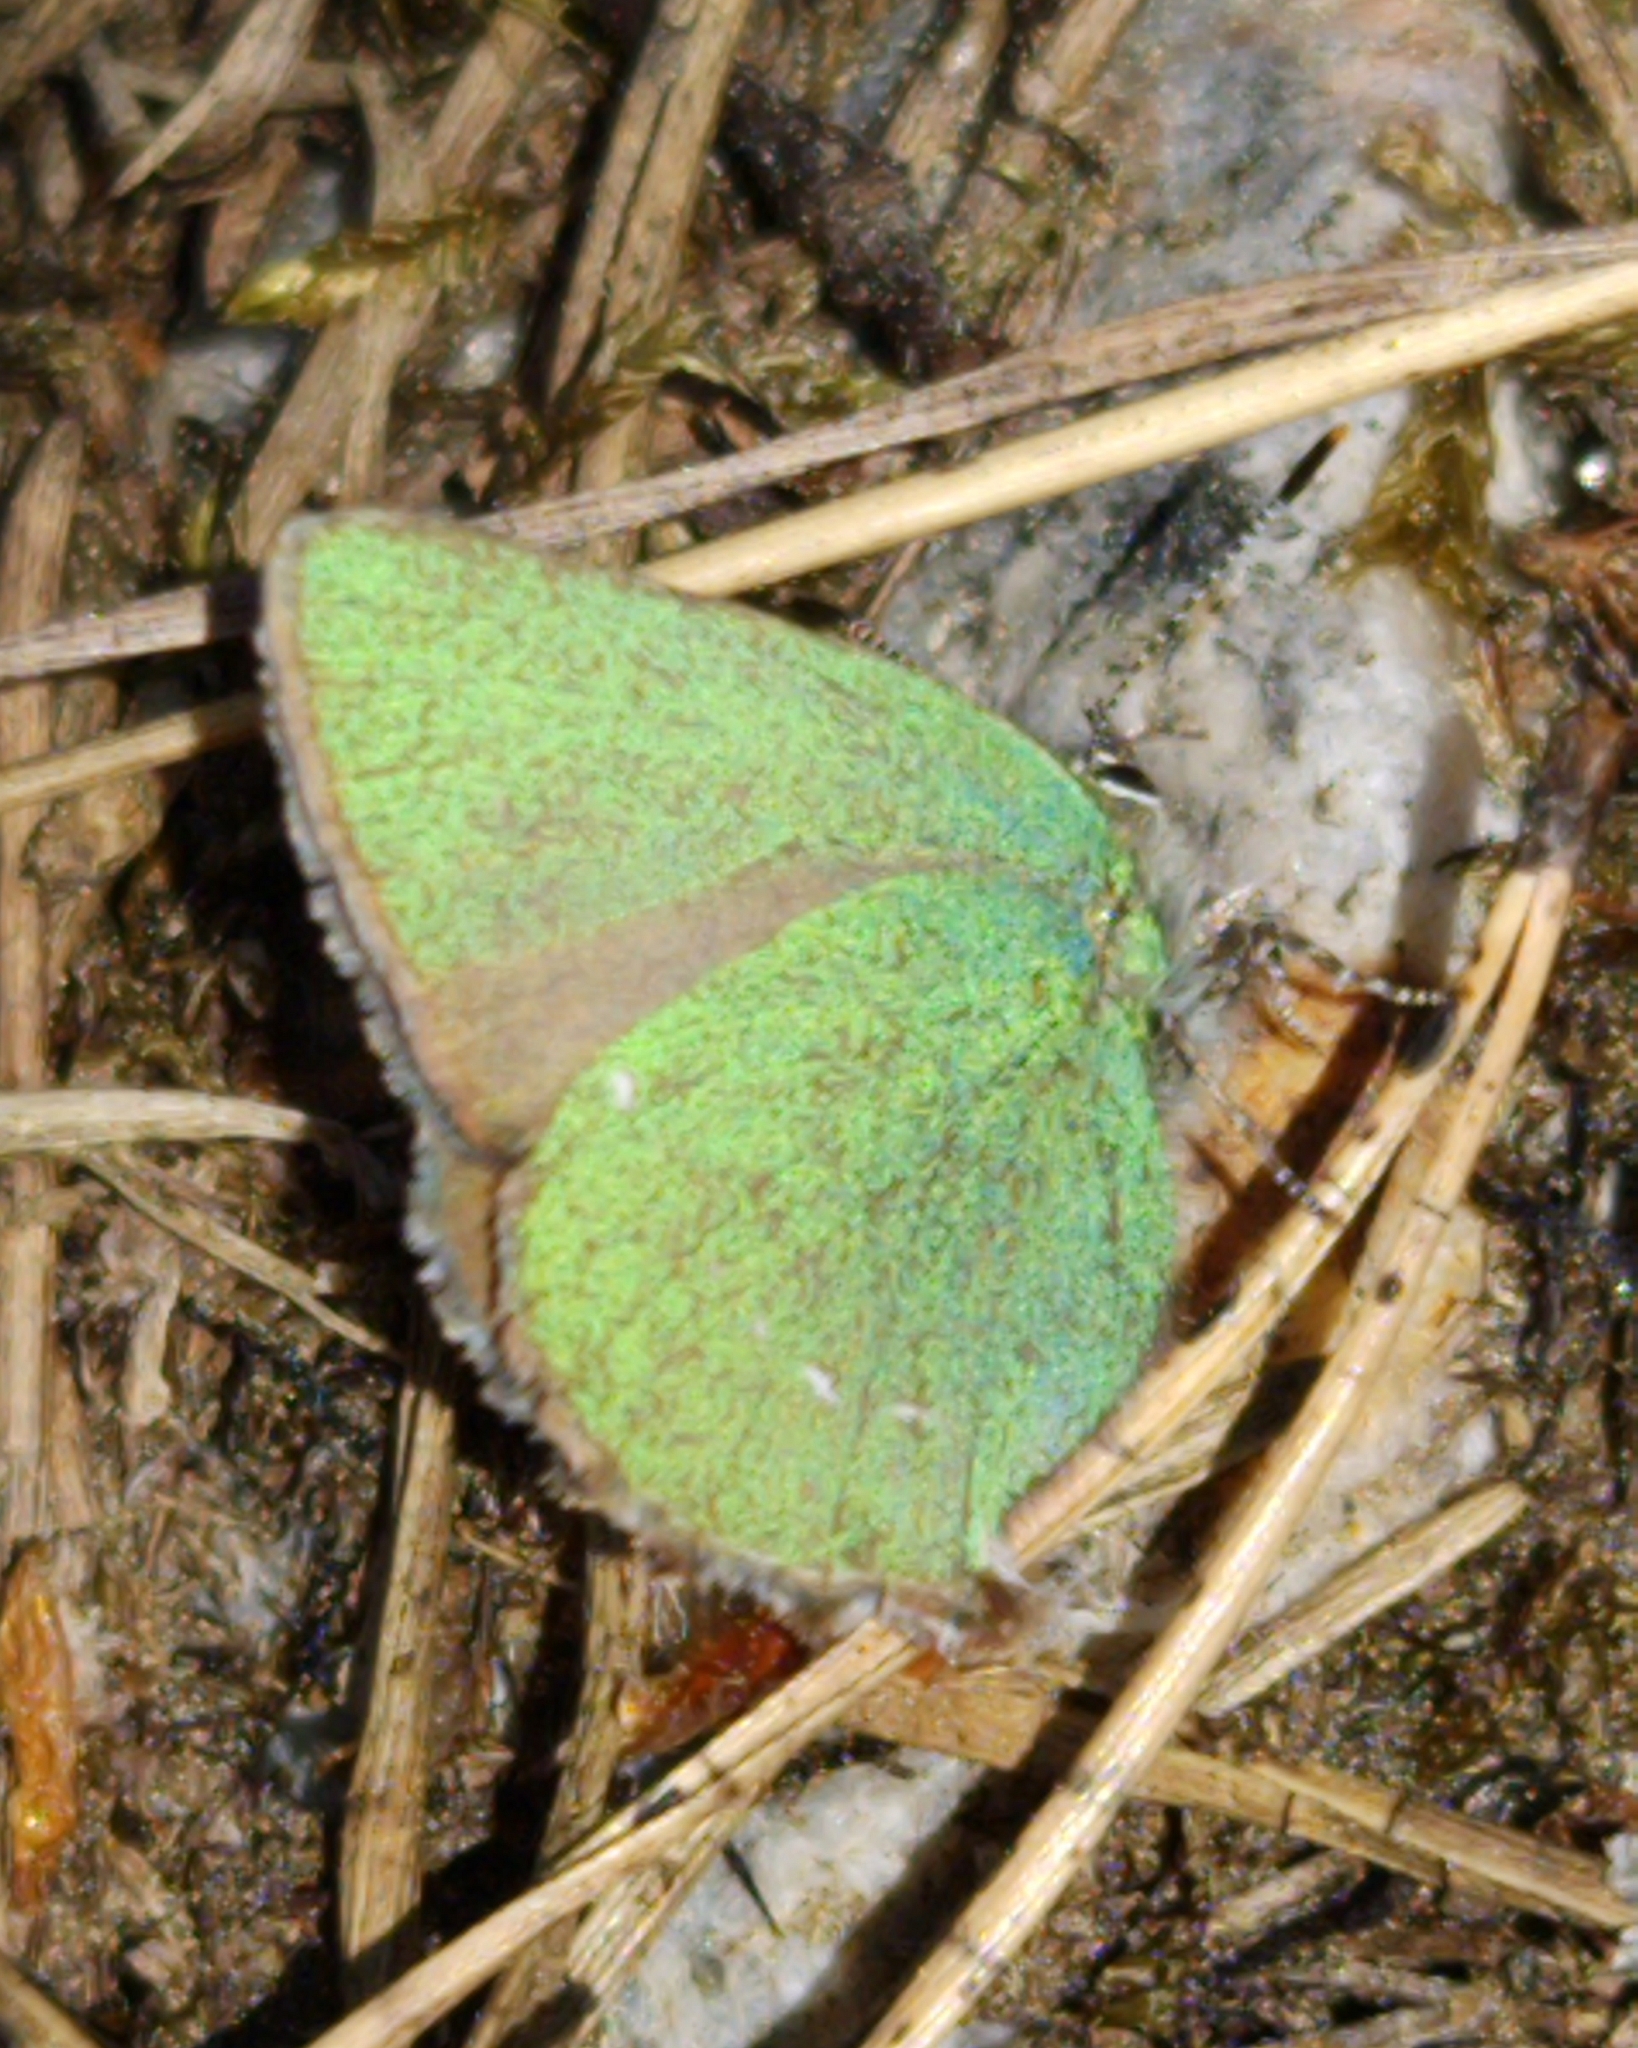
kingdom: Animalia
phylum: Arthropoda
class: Insecta
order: Lepidoptera
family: Lycaenidae
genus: Callophrys
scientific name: Callophrys rubi
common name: Green hairstreak
